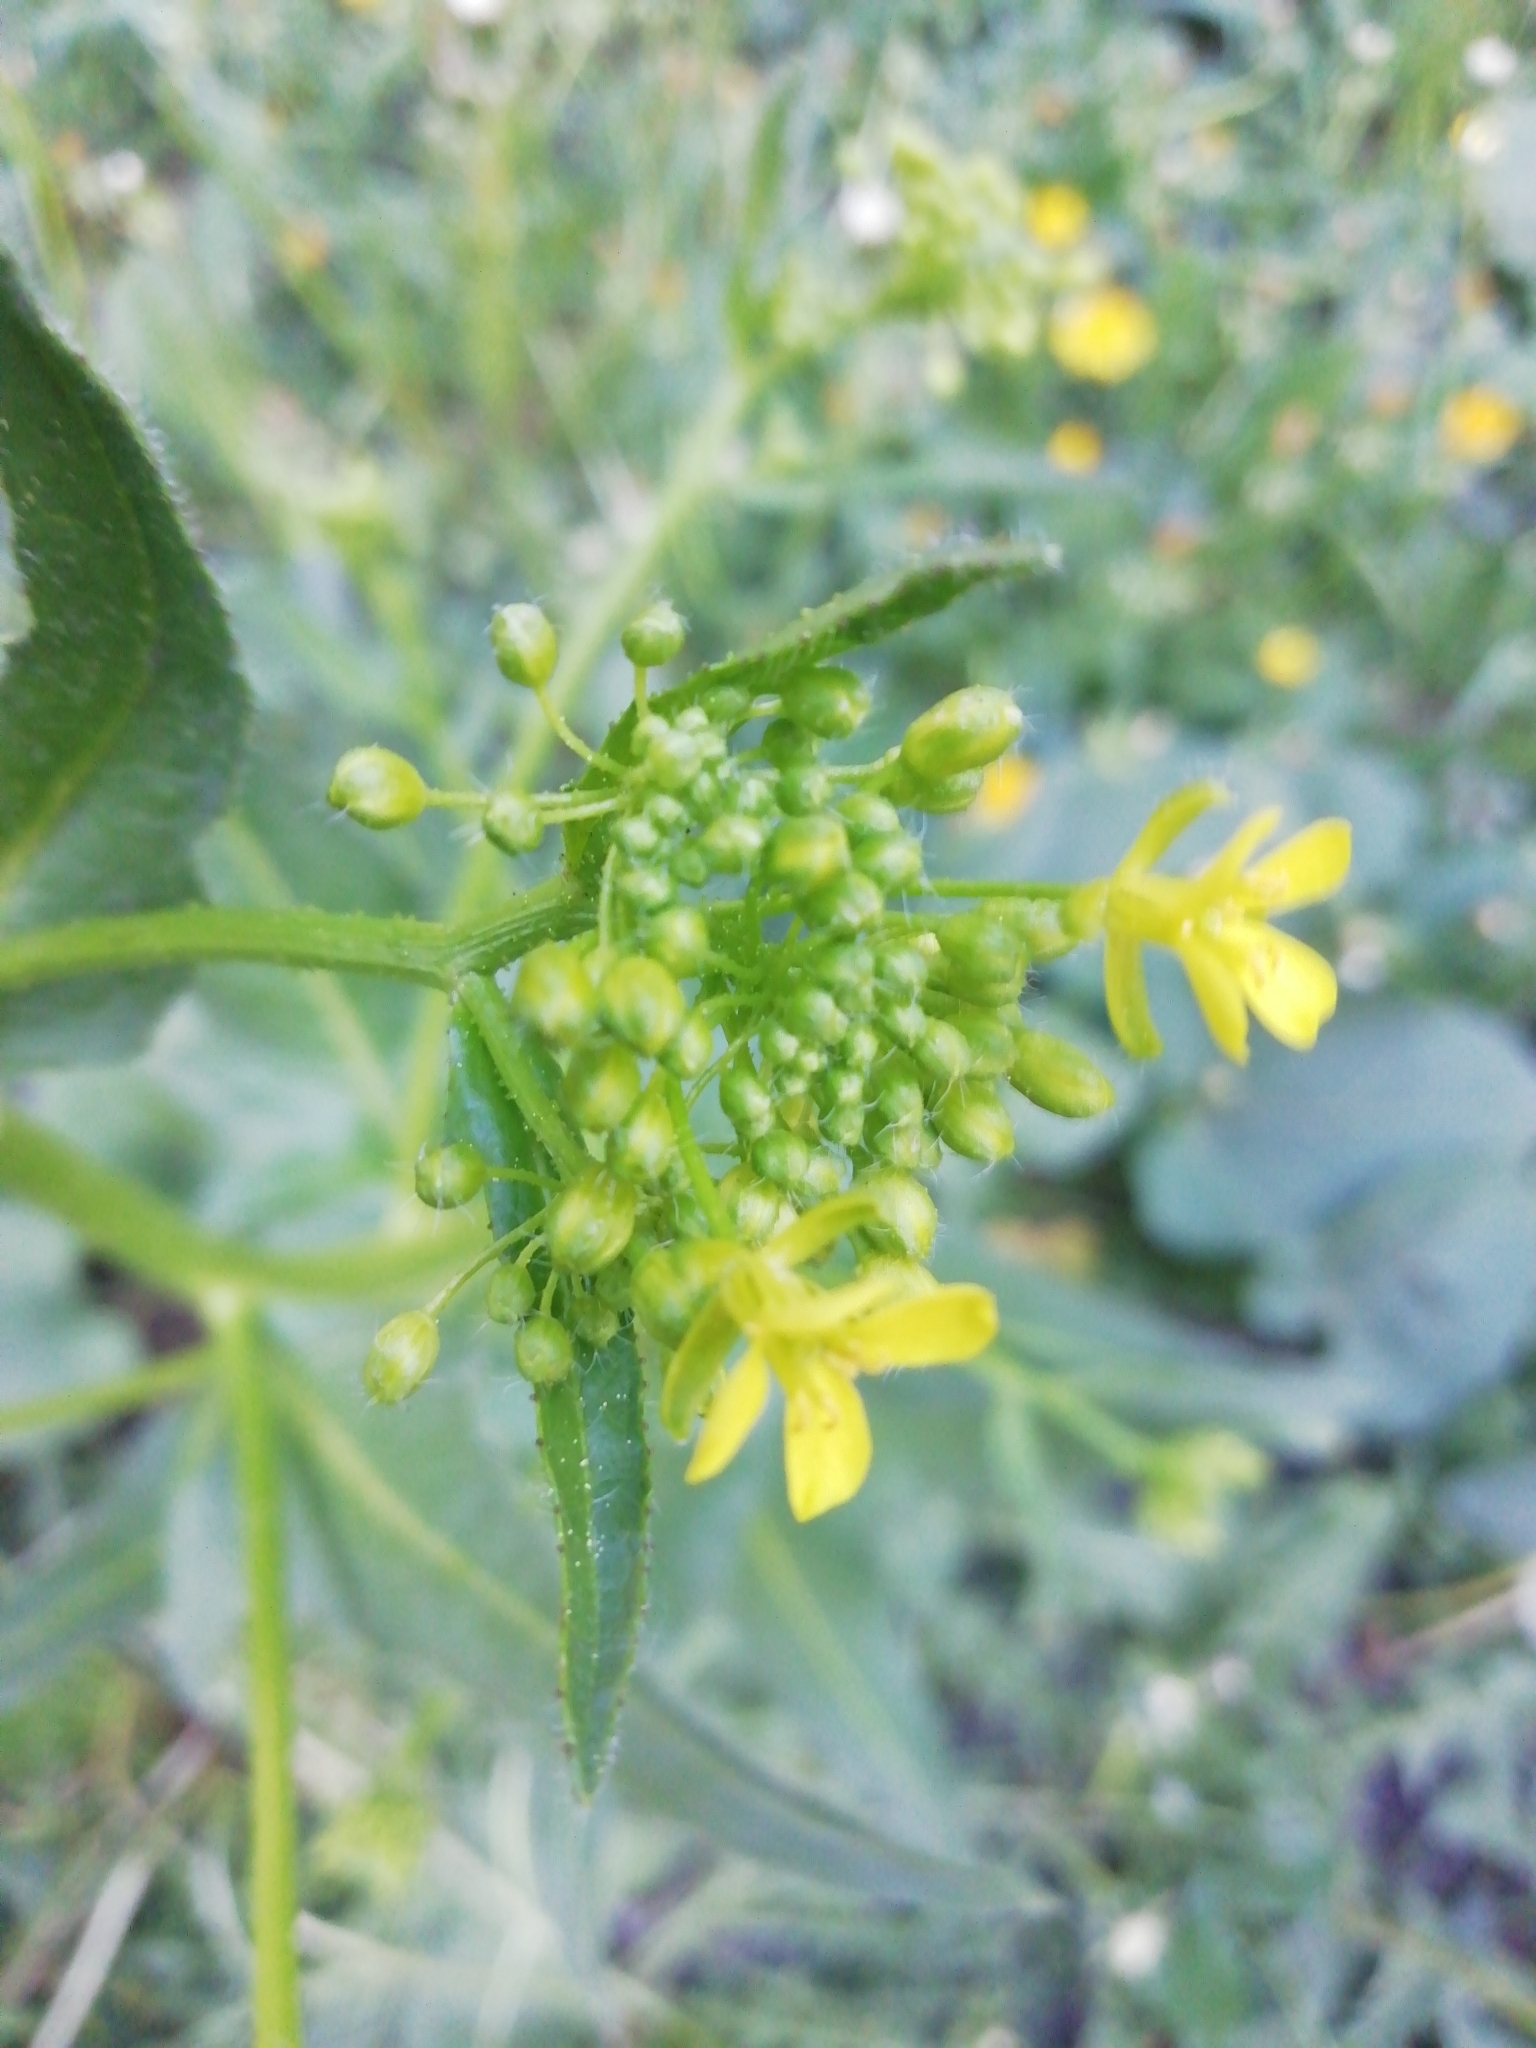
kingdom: Plantae
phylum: Tracheophyta
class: Magnoliopsida
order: Brassicales
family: Brassicaceae
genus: Bunias
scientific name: Bunias orientalis
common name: Warty-cabbage
